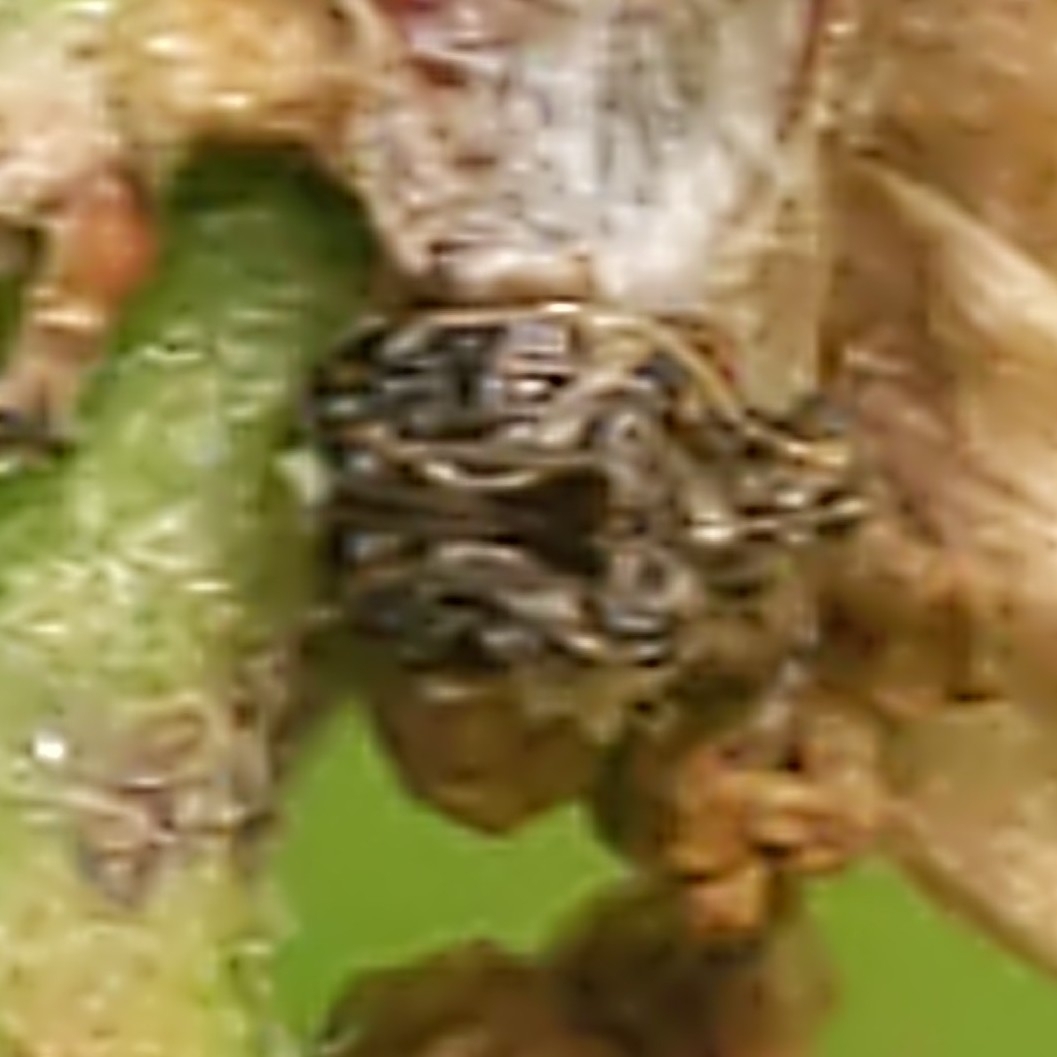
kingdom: Animalia
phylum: Arthropoda
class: Insecta
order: Coleoptera
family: Chrysomelidae
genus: Gibbobruchus
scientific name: Gibbobruchus mimus
